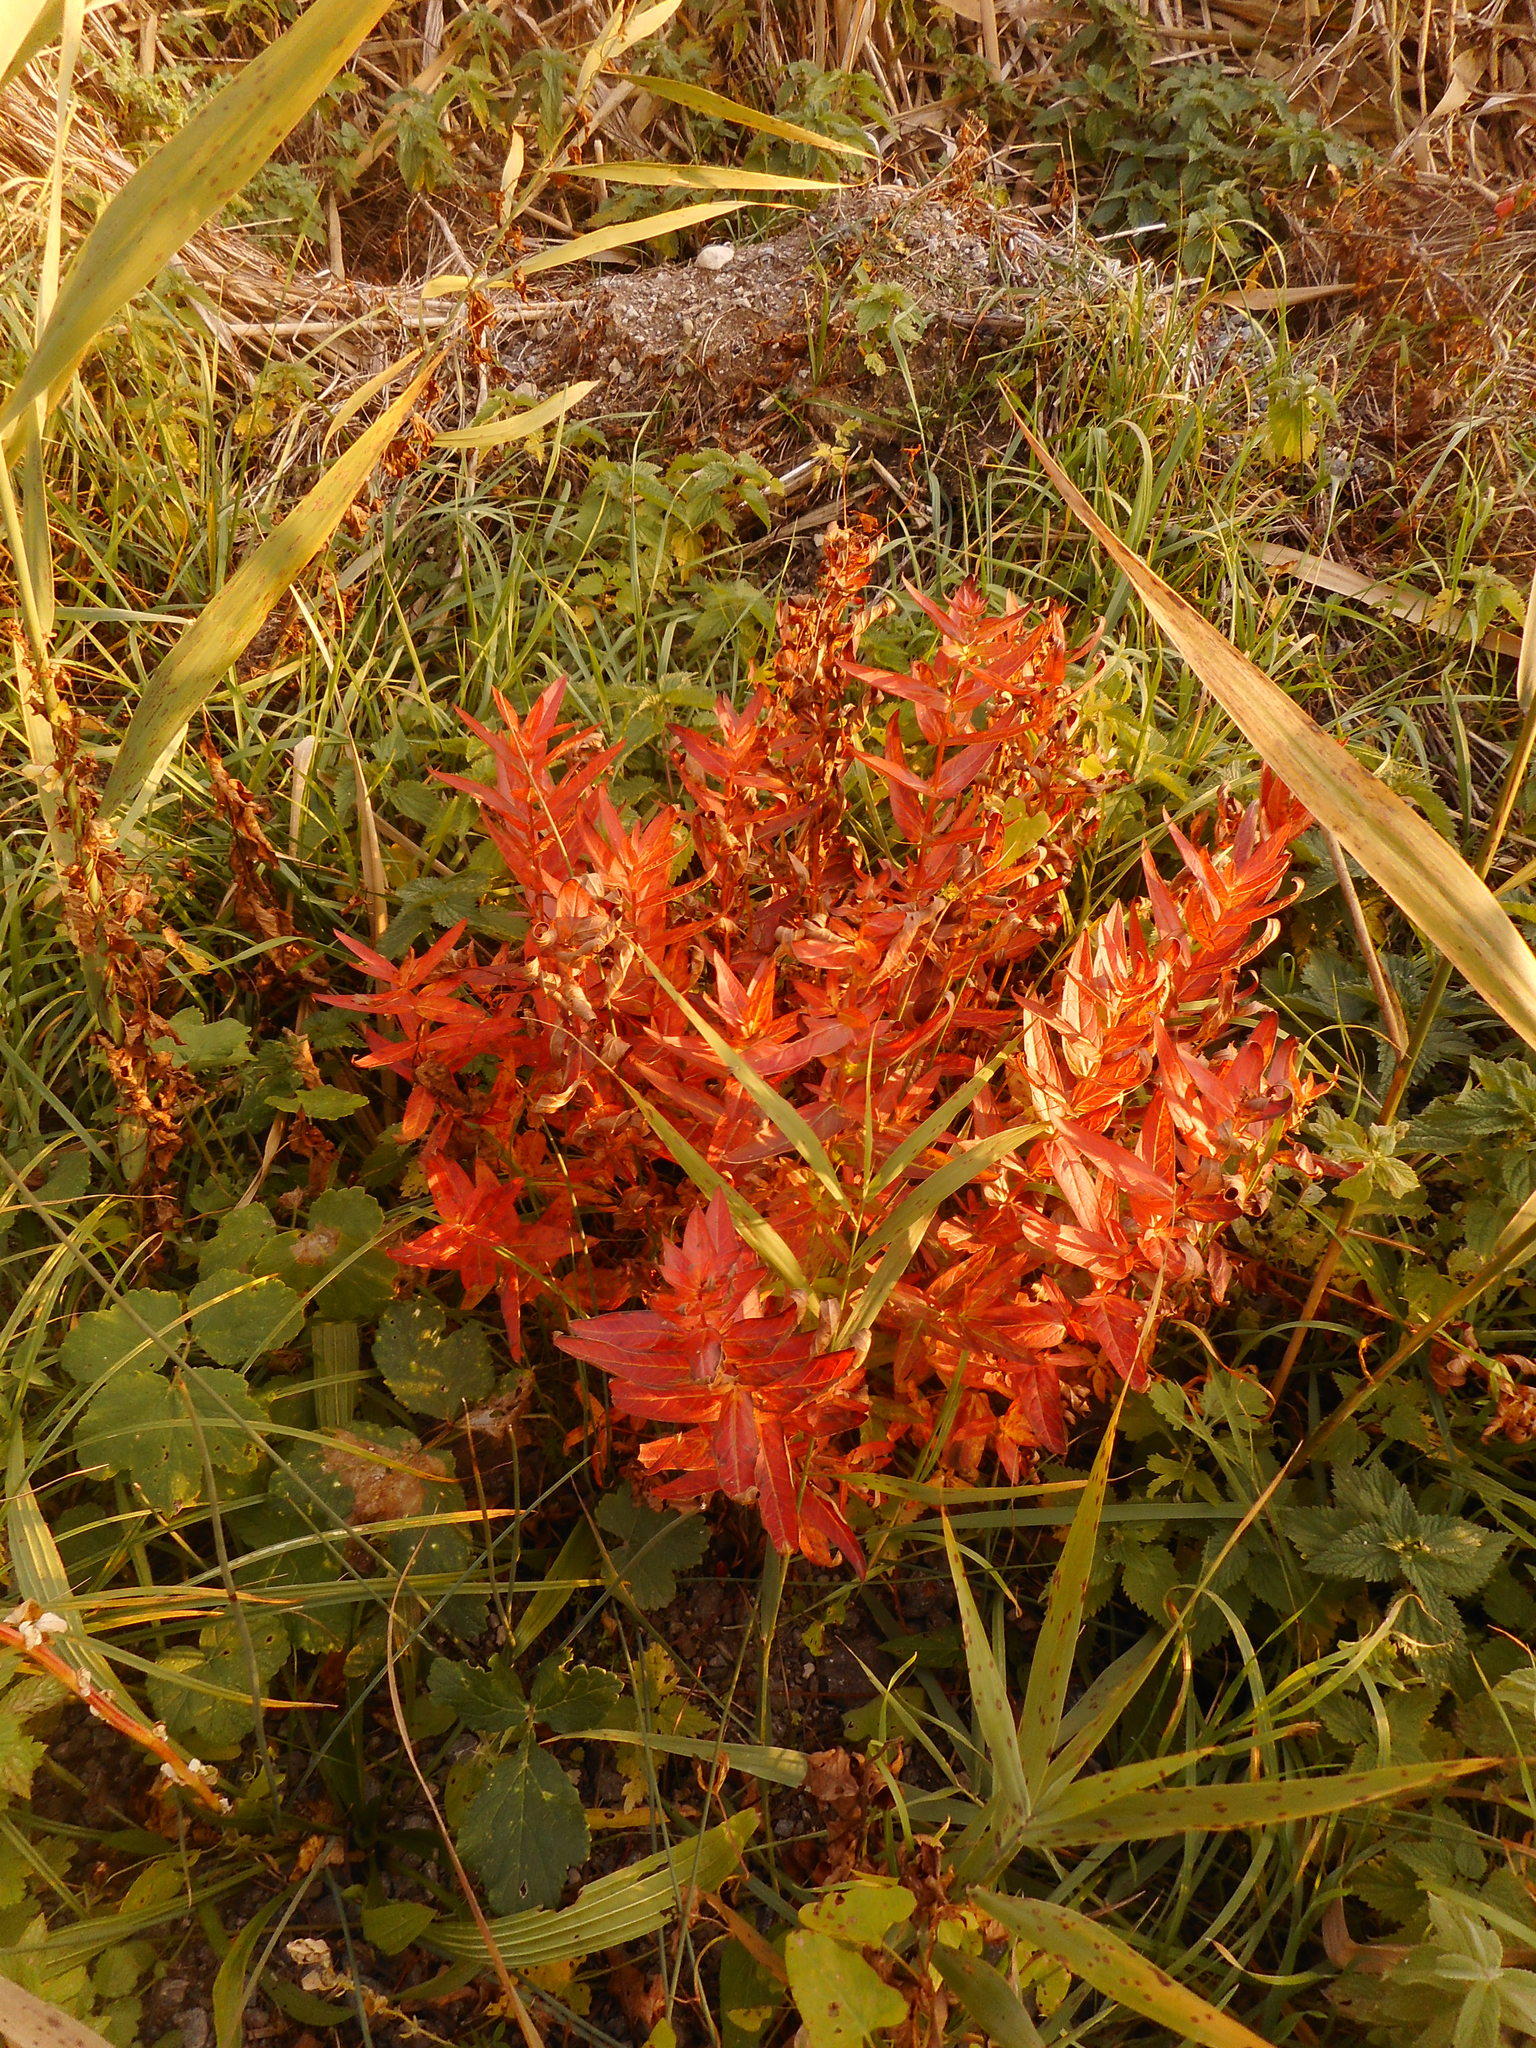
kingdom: Plantae
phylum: Tracheophyta
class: Magnoliopsida
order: Myrtales
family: Lythraceae
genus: Lythrum
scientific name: Lythrum salicaria
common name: Purple loosestrife
